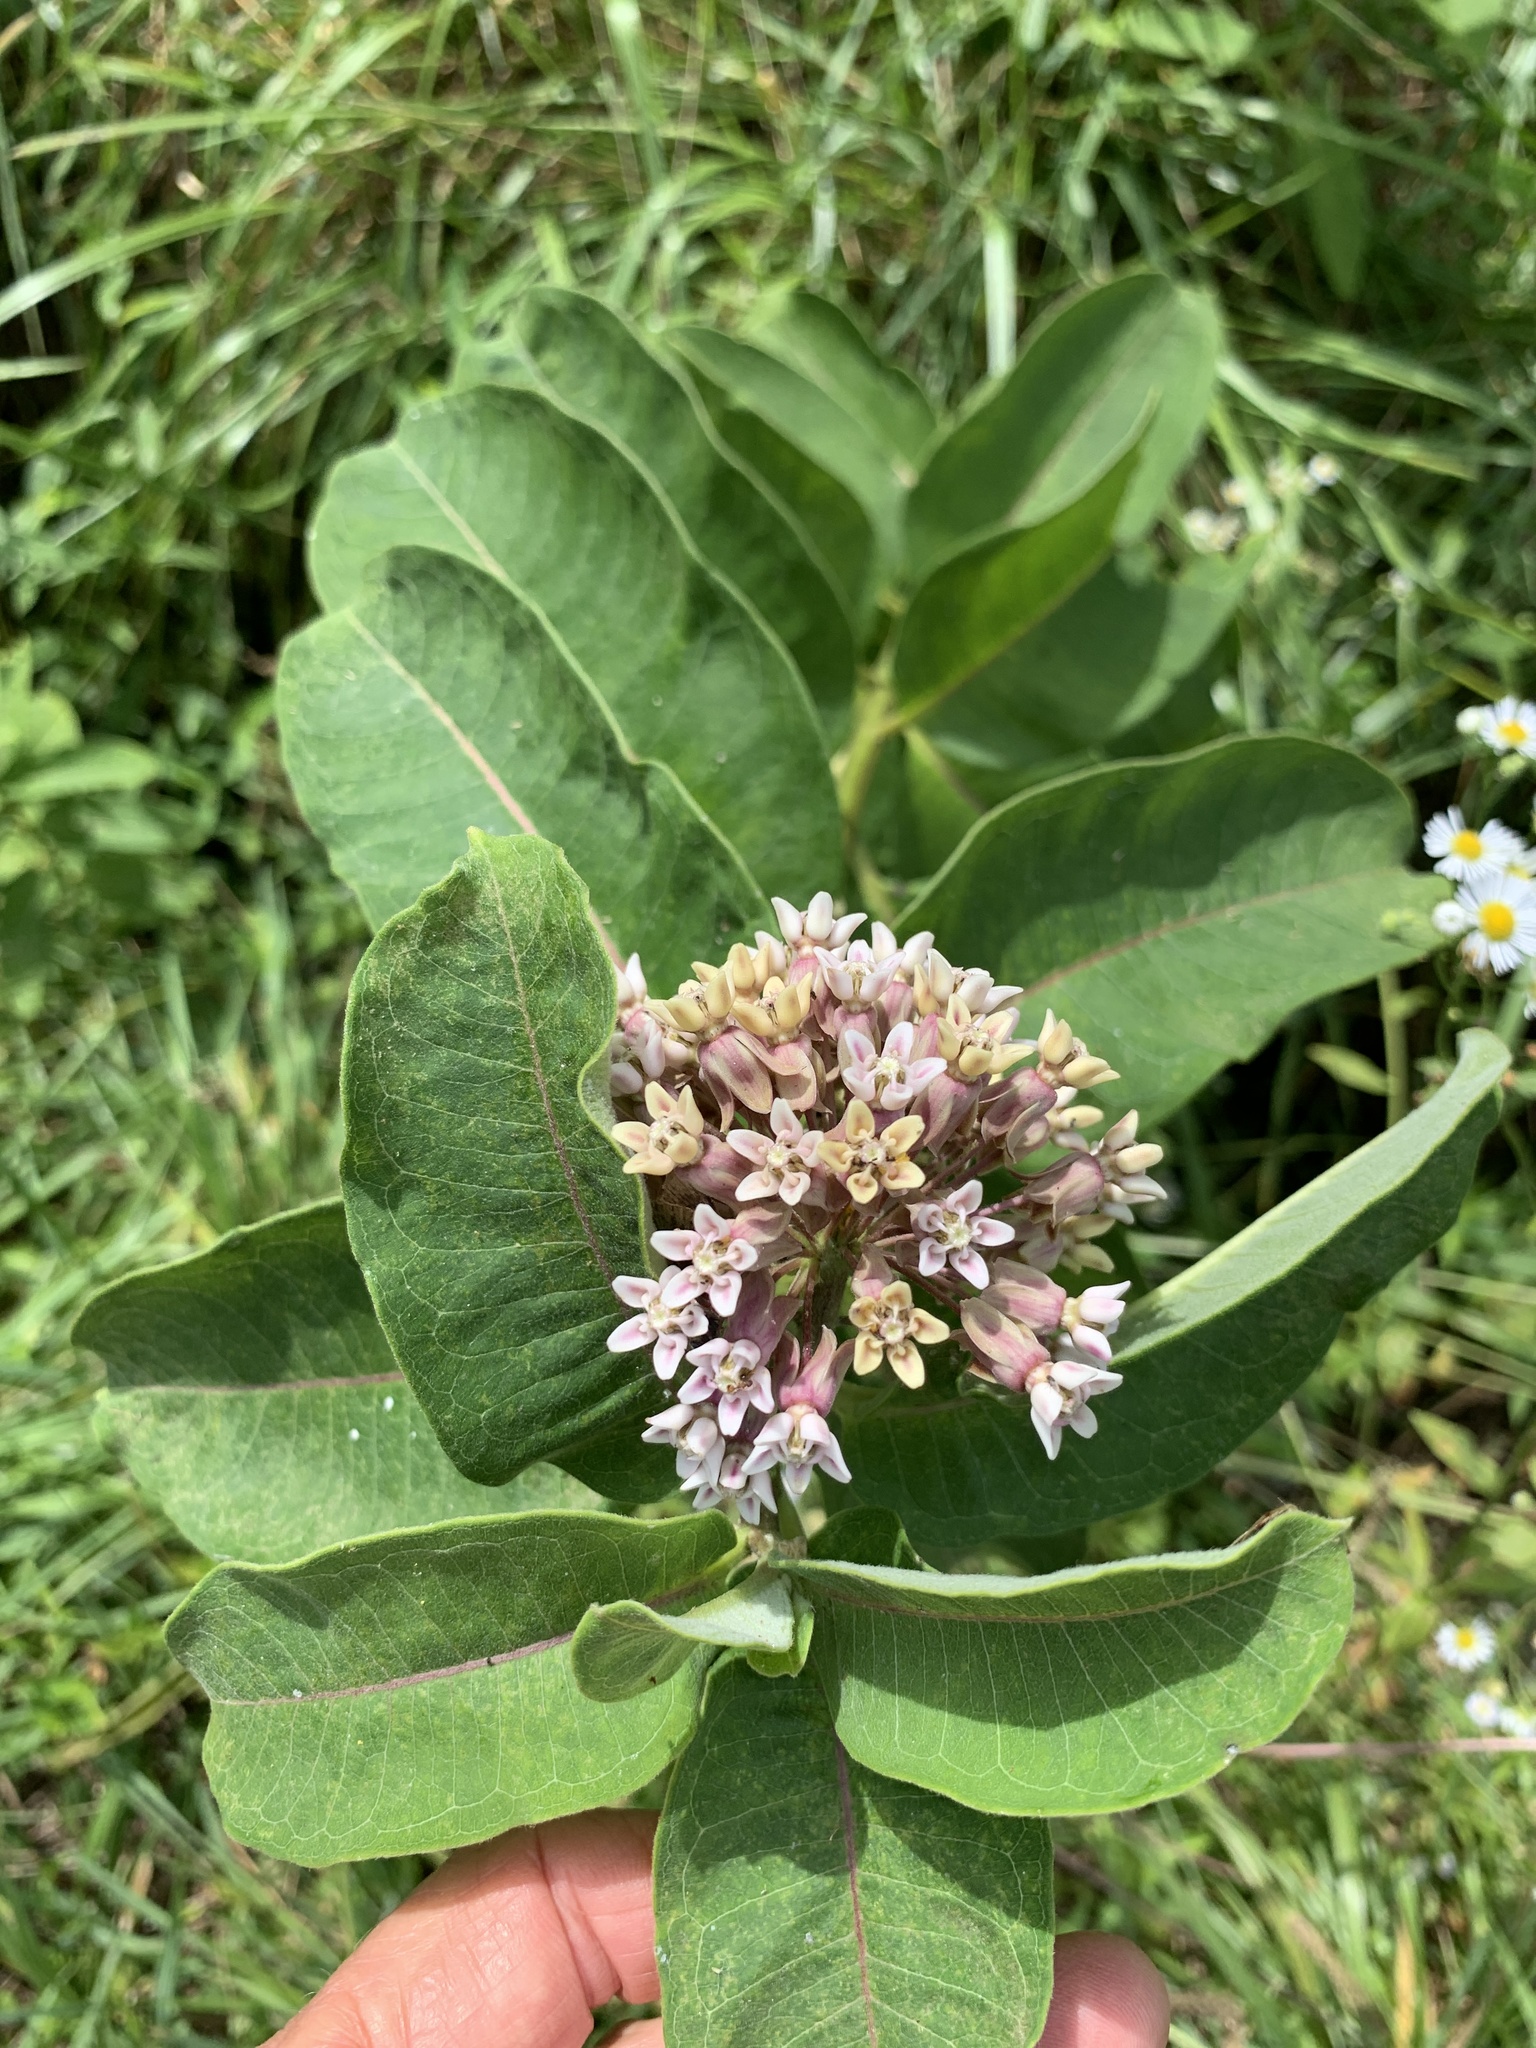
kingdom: Plantae
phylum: Tracheophyta
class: Magnoliopsida
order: Gentianales
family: Apocynaceae
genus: Asclepias
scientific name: Asclepias syriaca
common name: Common milkweed
